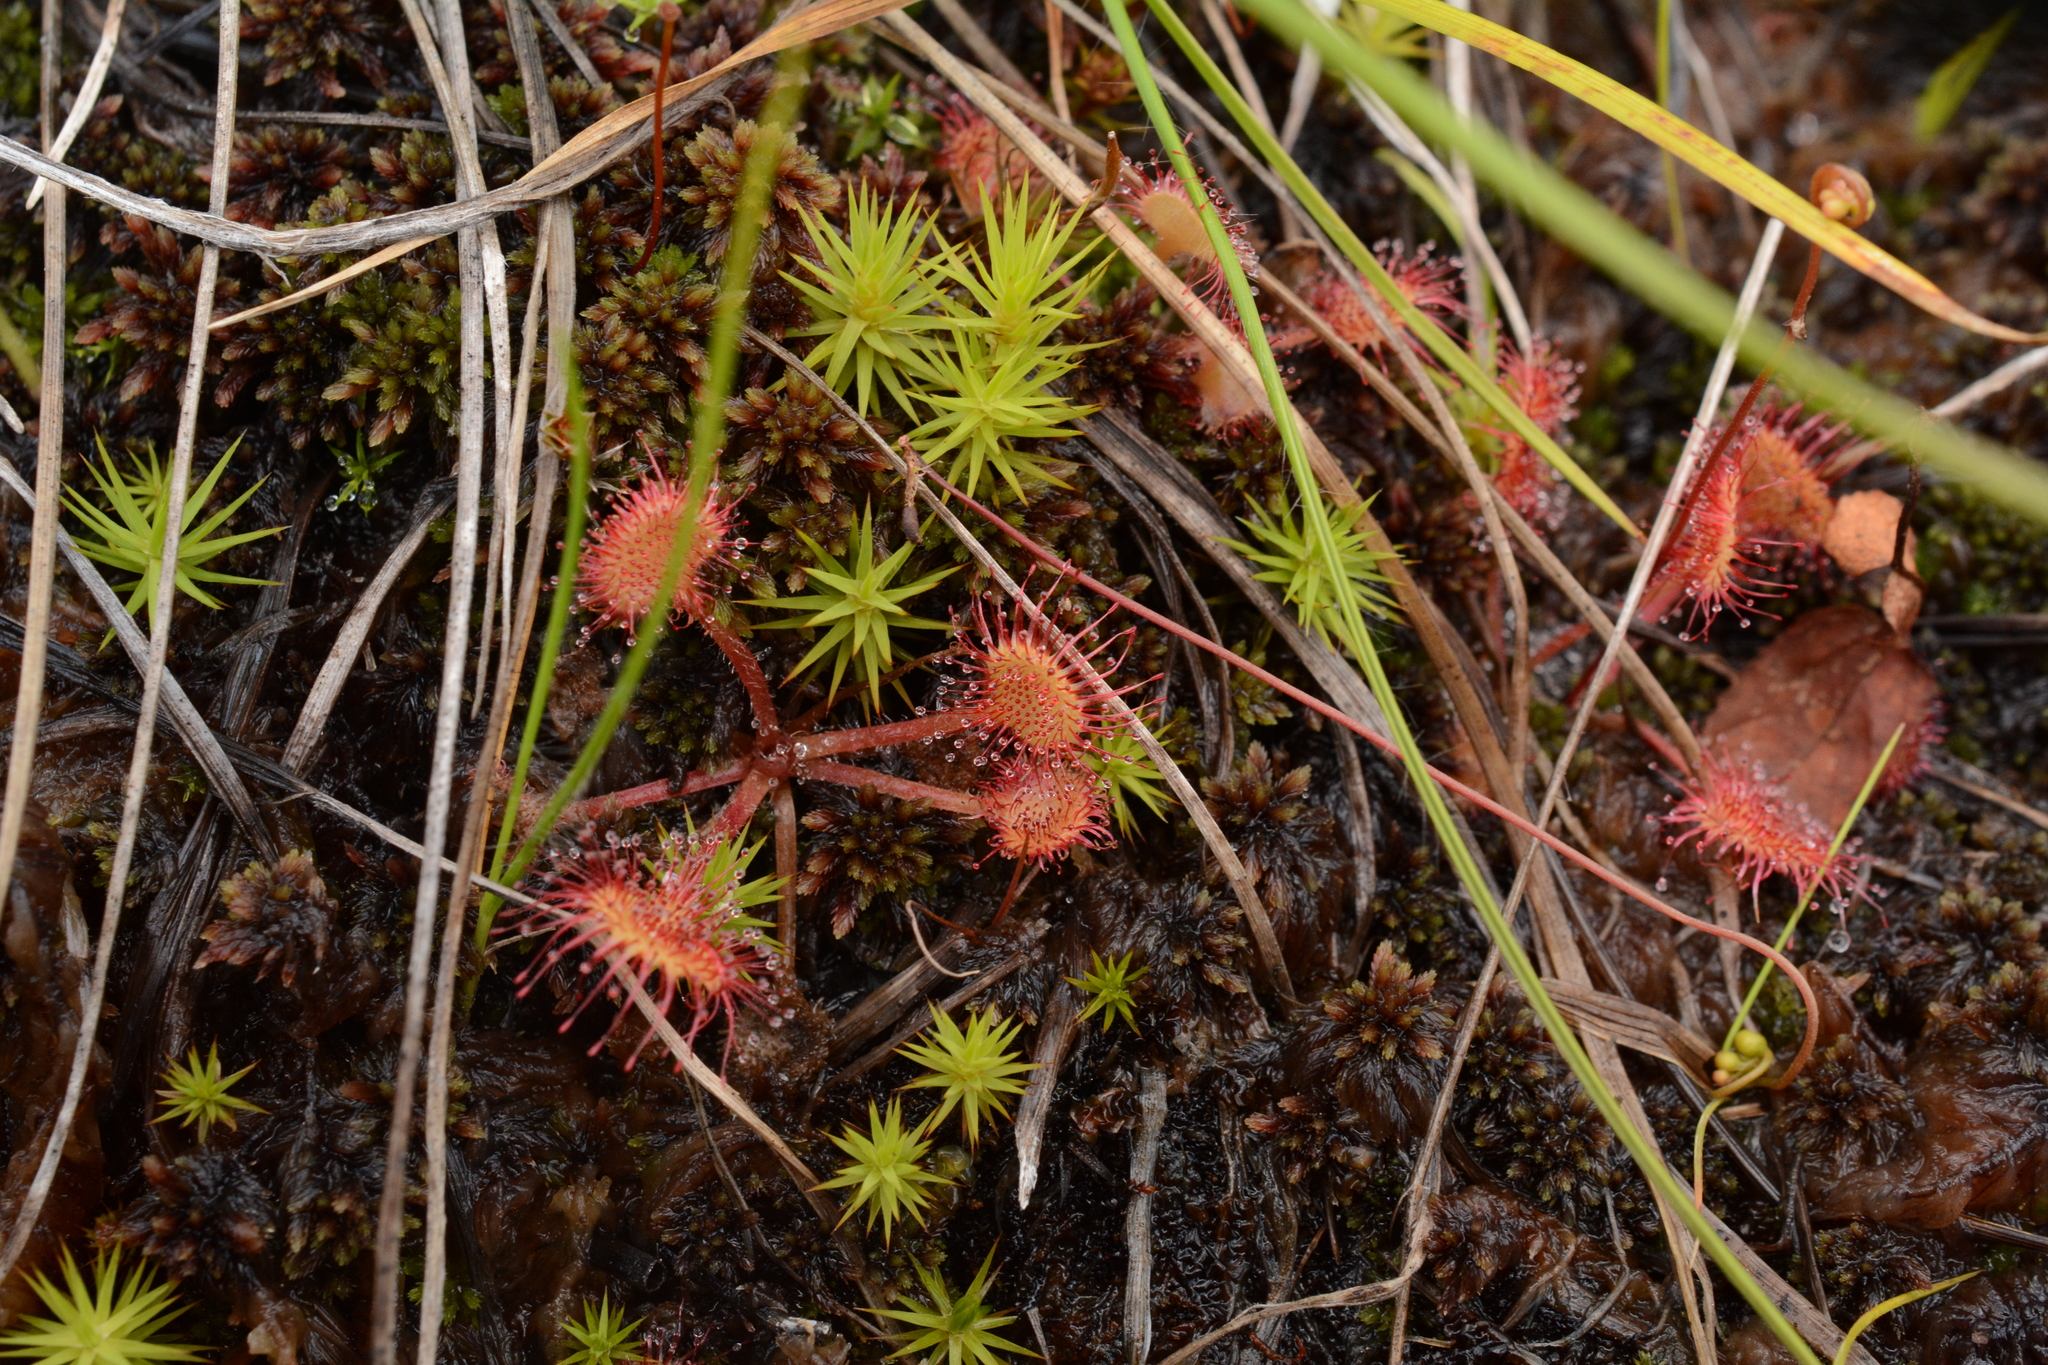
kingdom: Plantae
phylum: Tracheophyta
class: Magnoliopsida
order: Caryophyllales
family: Droseraceae
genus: Drosera
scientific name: Drosera rotundifolia
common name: Round-leaved sundew
